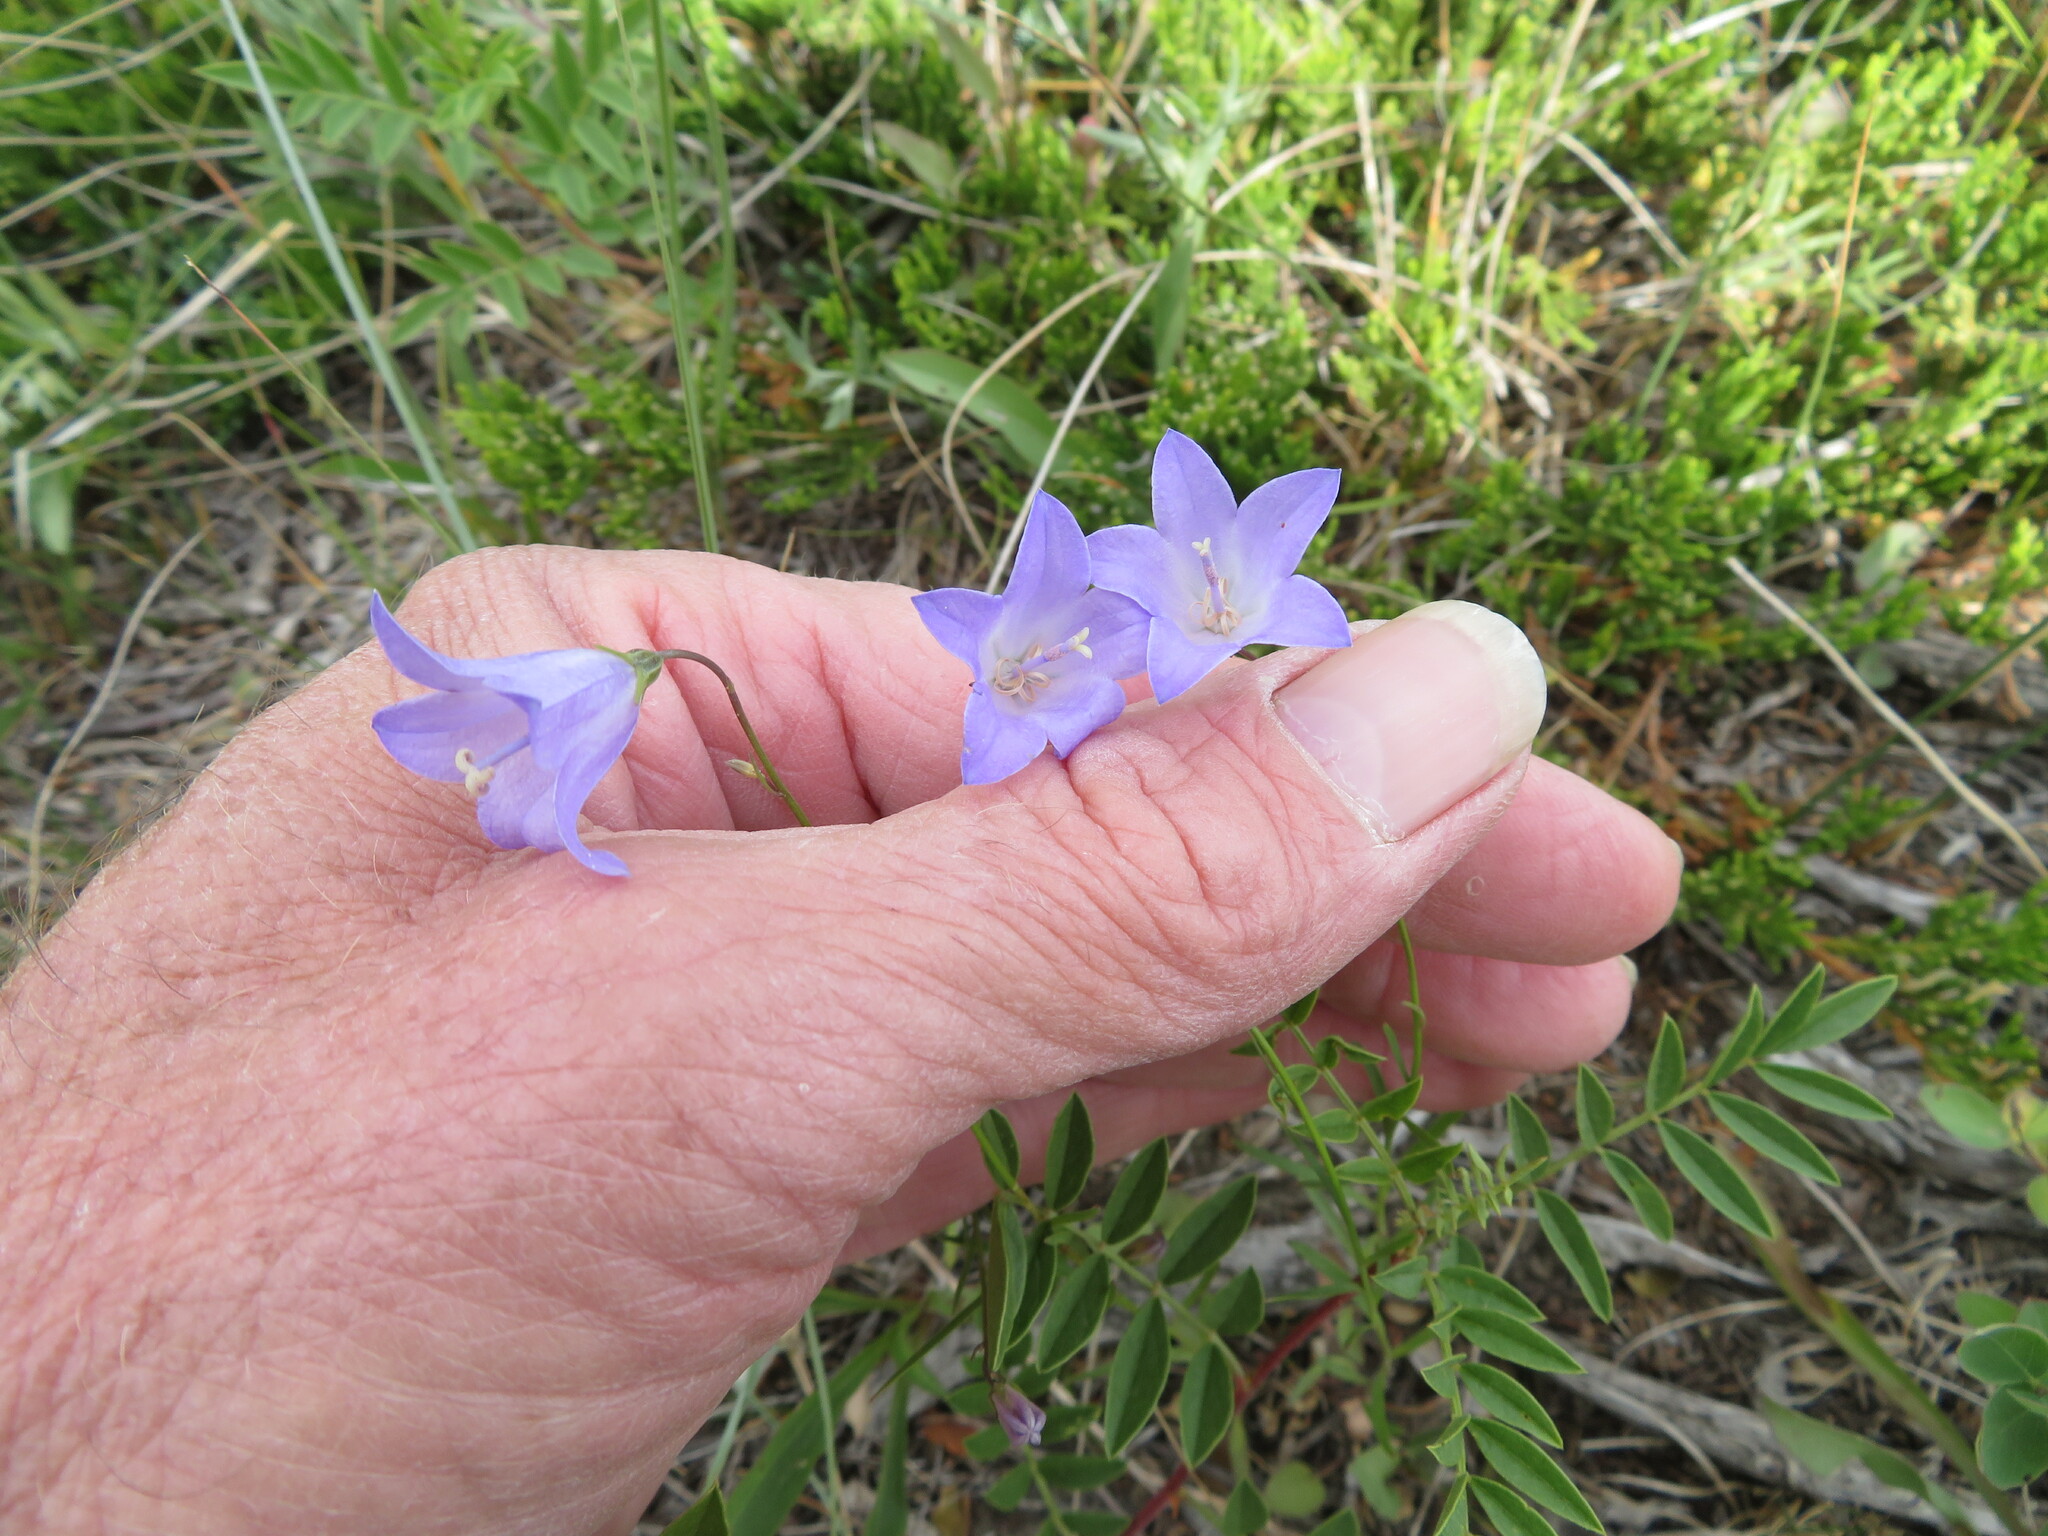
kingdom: Plantae
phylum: Tracheophyta
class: Magnoliopsida
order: Asterales
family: Campanulaceae
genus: Campanula
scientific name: Campanula alaskana
